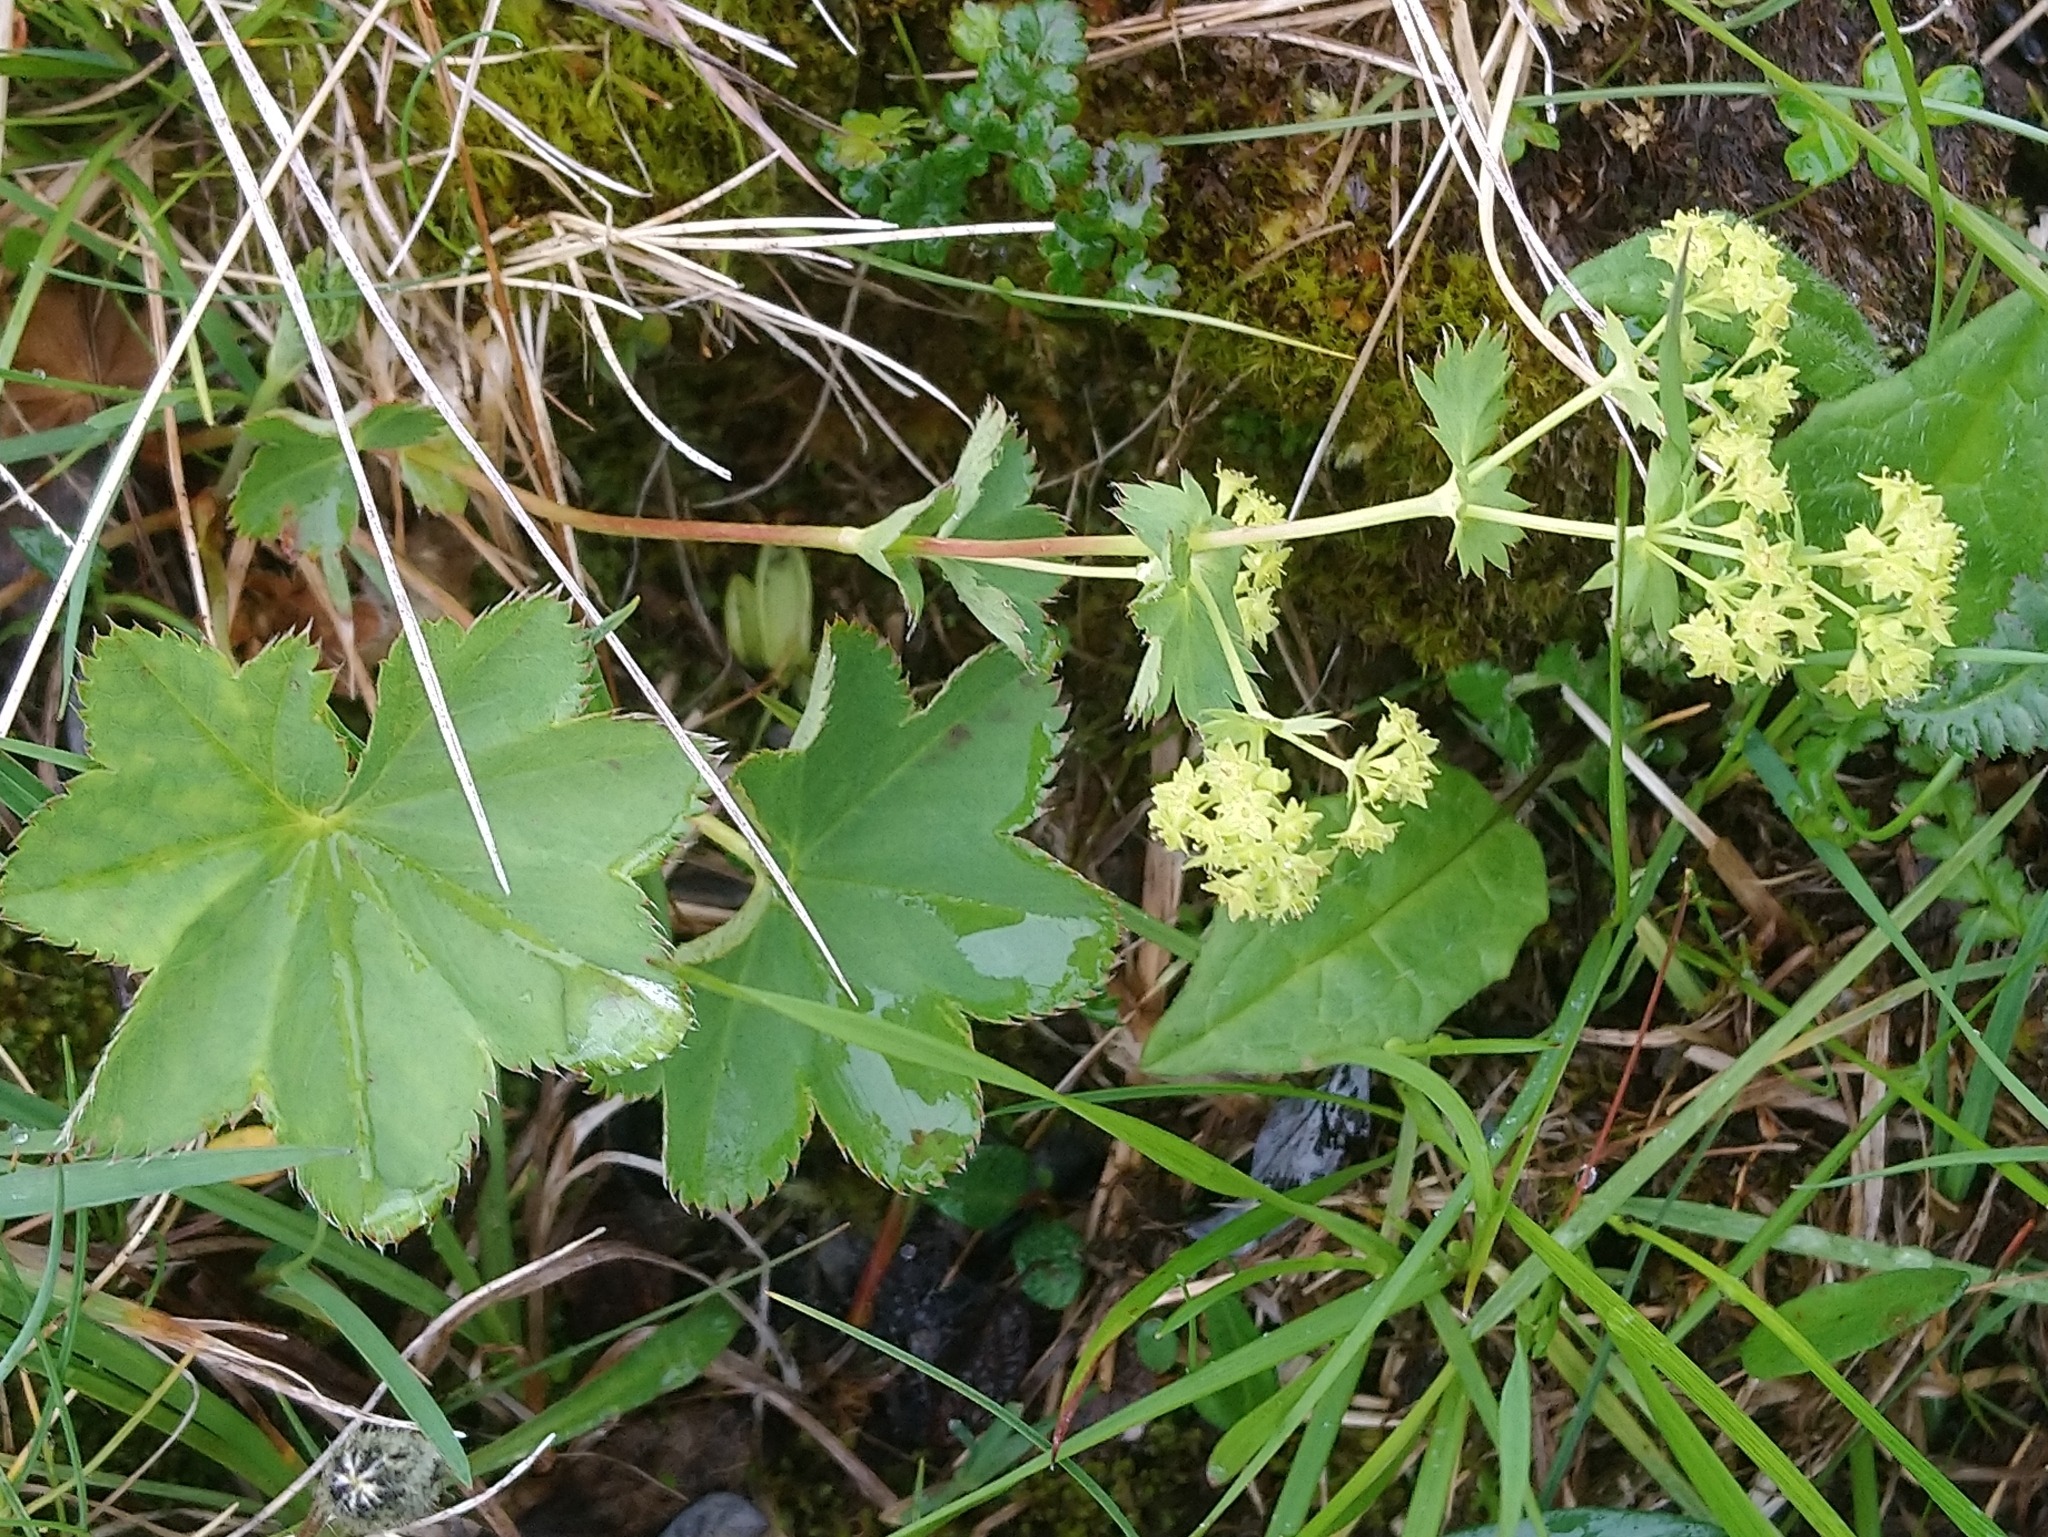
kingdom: Plantae
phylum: Tracheophyta
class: Magnoliopsida
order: Rosales
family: Rosaceae
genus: Alchemilla
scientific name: Alchemilla alpina
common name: Alpine lady's-mantle
